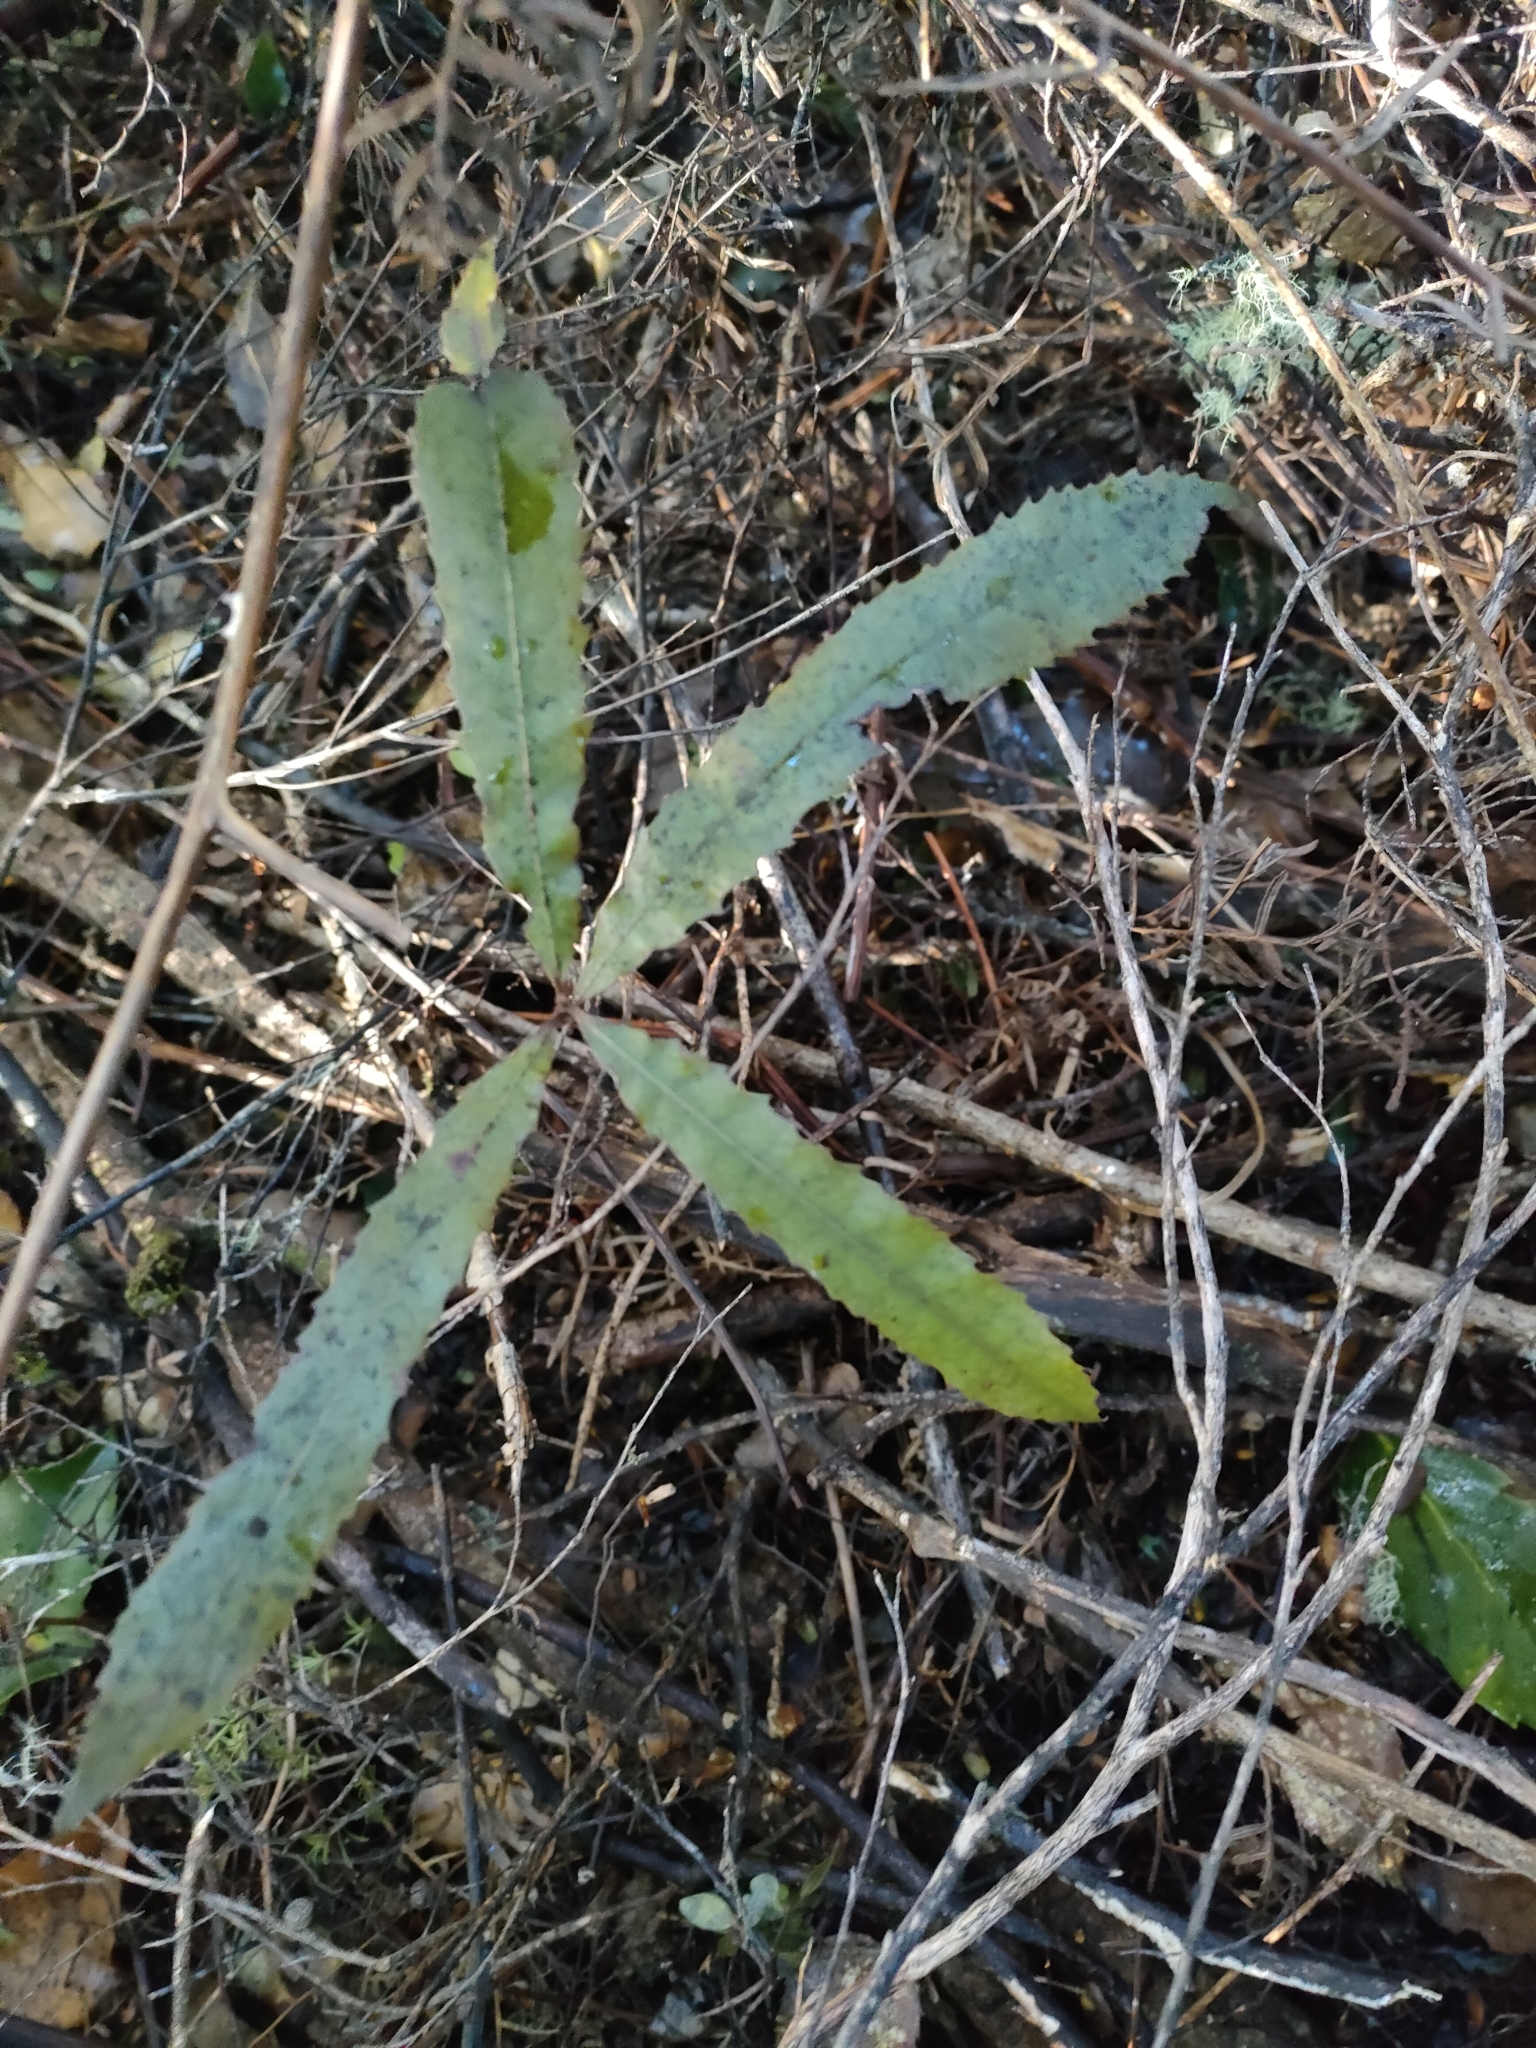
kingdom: Plantae
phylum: Tracheophyta
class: Magnoliopsida
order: Oxalidales
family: Elaeocarpaceae
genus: Elaeocarpus
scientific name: Elaeocarpus dentatus
